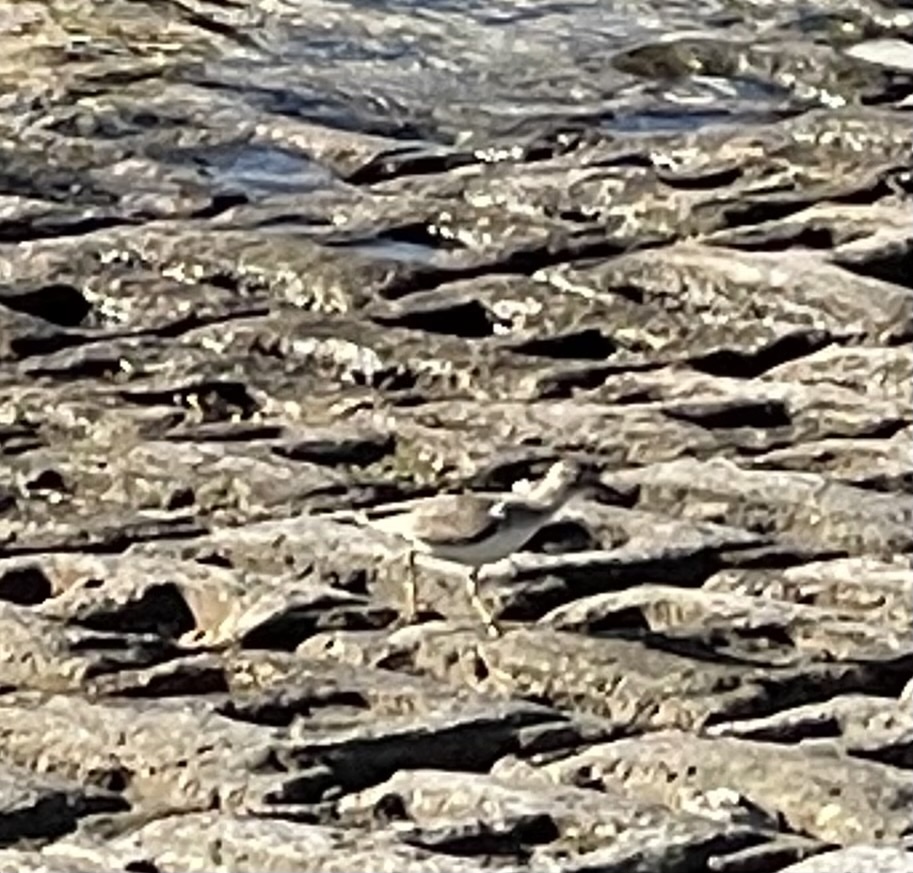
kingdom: Animalia
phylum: Chordata
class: Aves
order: Charadriiformes
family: Scolopacidae
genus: Actitis
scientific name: Actitis macularius
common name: Spotted sandpiper
